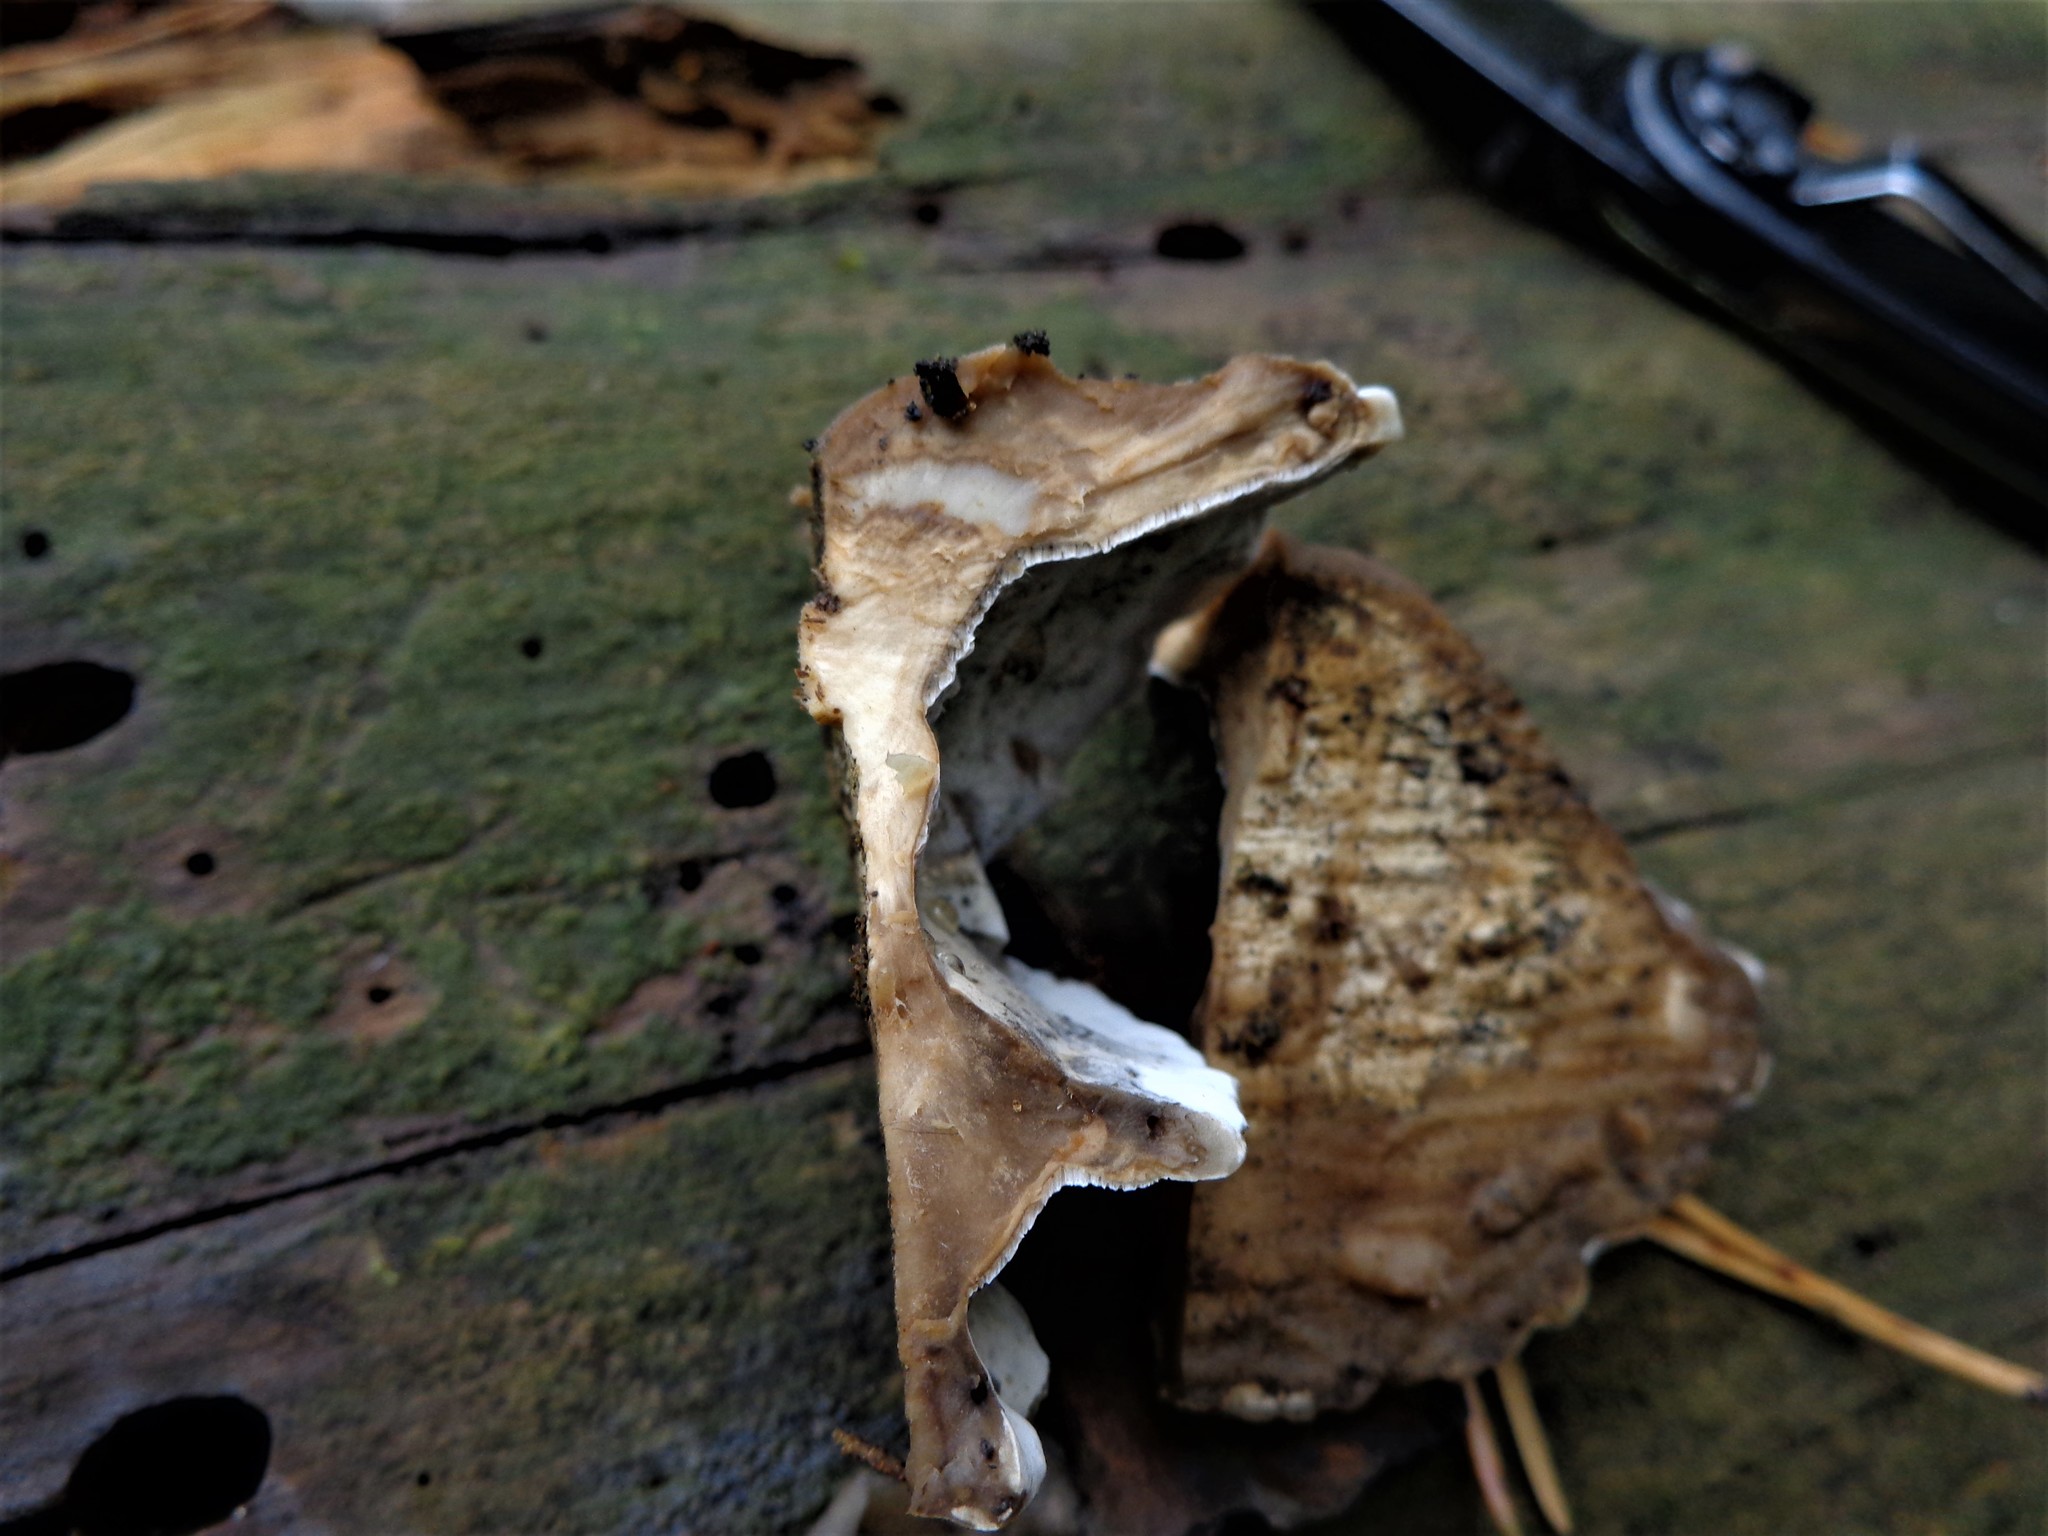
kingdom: Fungi
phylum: Basidiomycota
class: Agaricomycetes
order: Polyporales
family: Phanerochaetaceae
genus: Bjerkandera
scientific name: Bjerkandera adusta
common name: Smoky bracket
